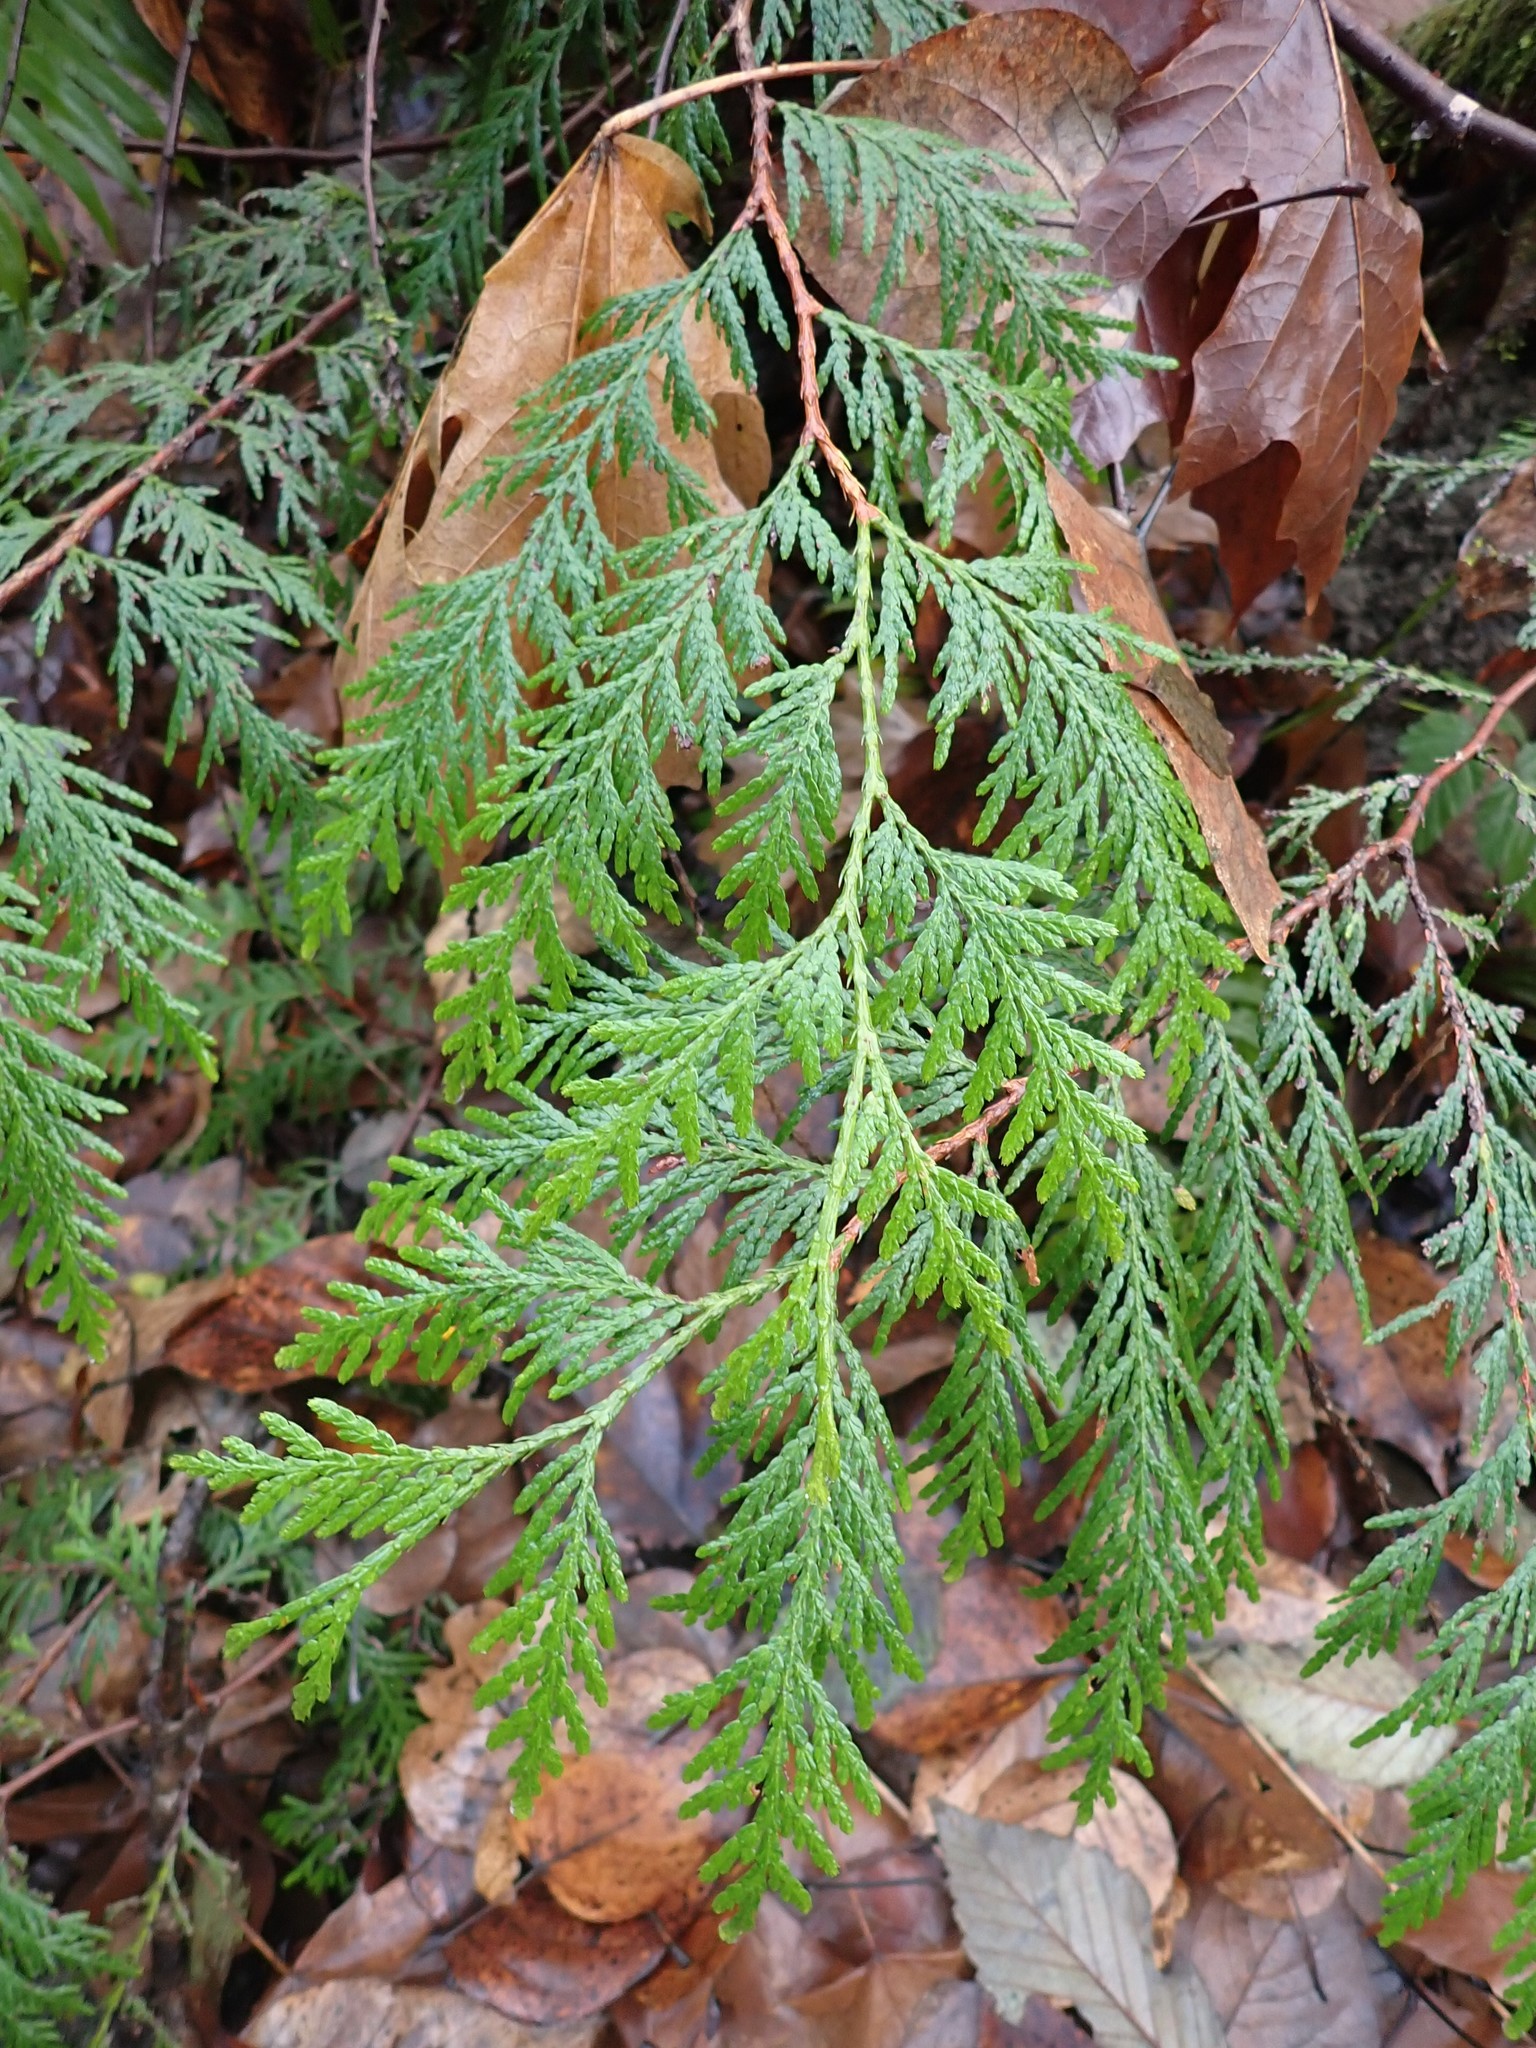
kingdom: Plantae
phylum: Tracheophyta
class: Pinopsida
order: Pinales
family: Cupressaceae
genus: Thuja
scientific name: Thuja plicata
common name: Western red-cedar
